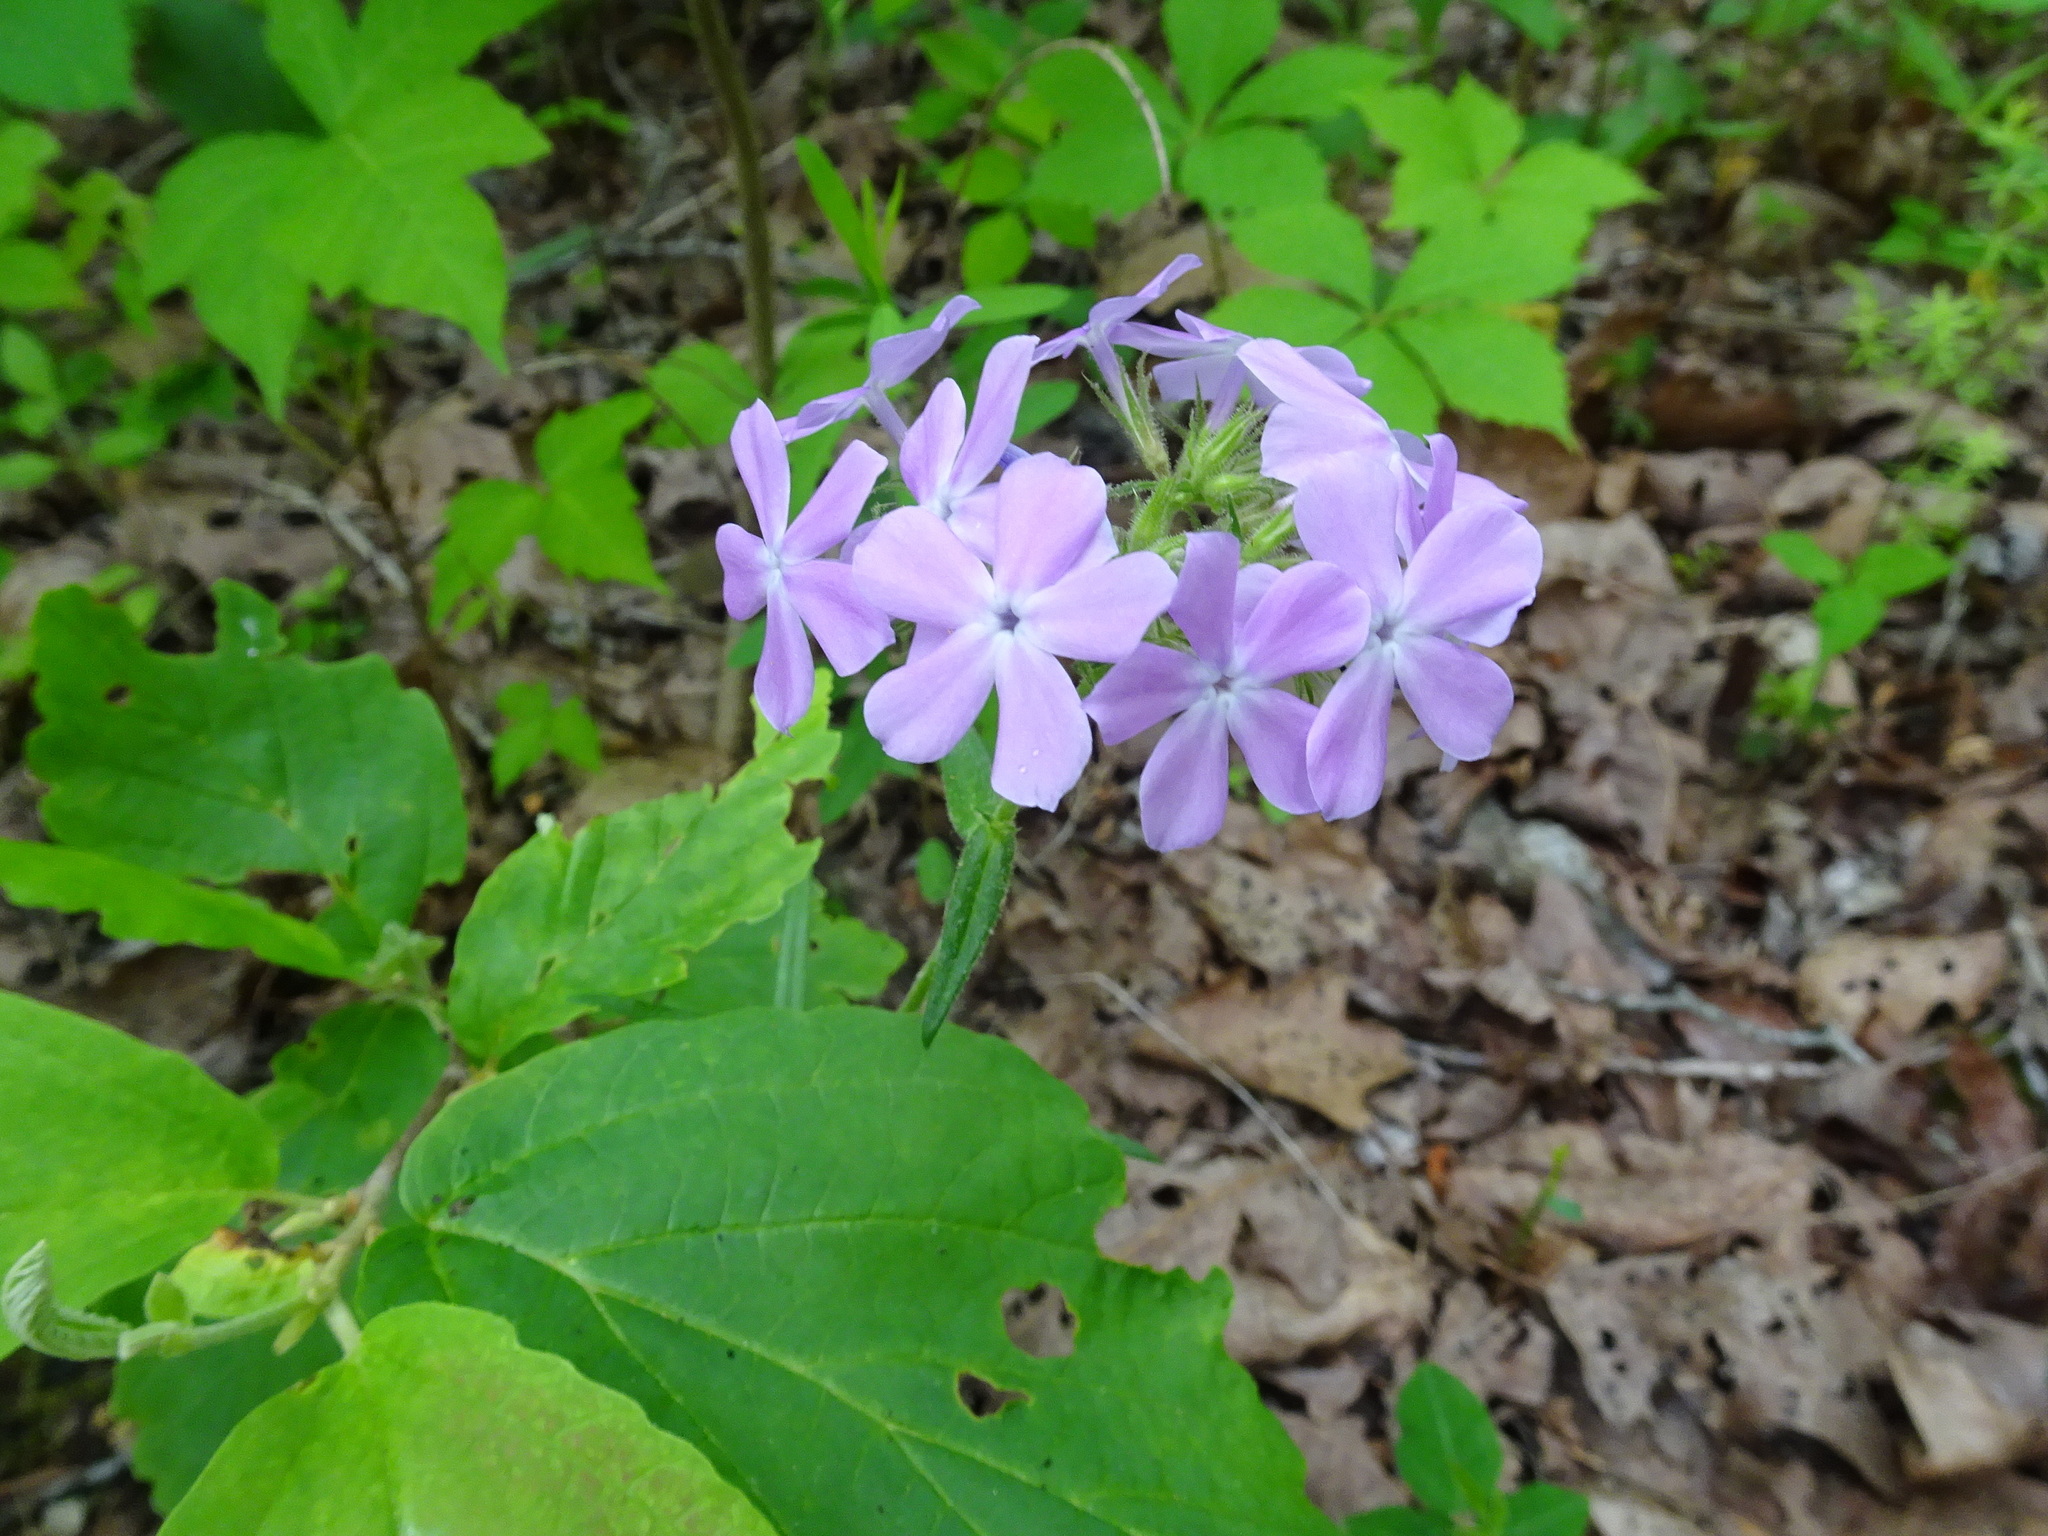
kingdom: Plantae
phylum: Tracheophyta
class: Magnoliopsida
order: Ericales
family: Polemoniaceae
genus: Phlox
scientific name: Phlox pilosa
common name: Prairie phlox
